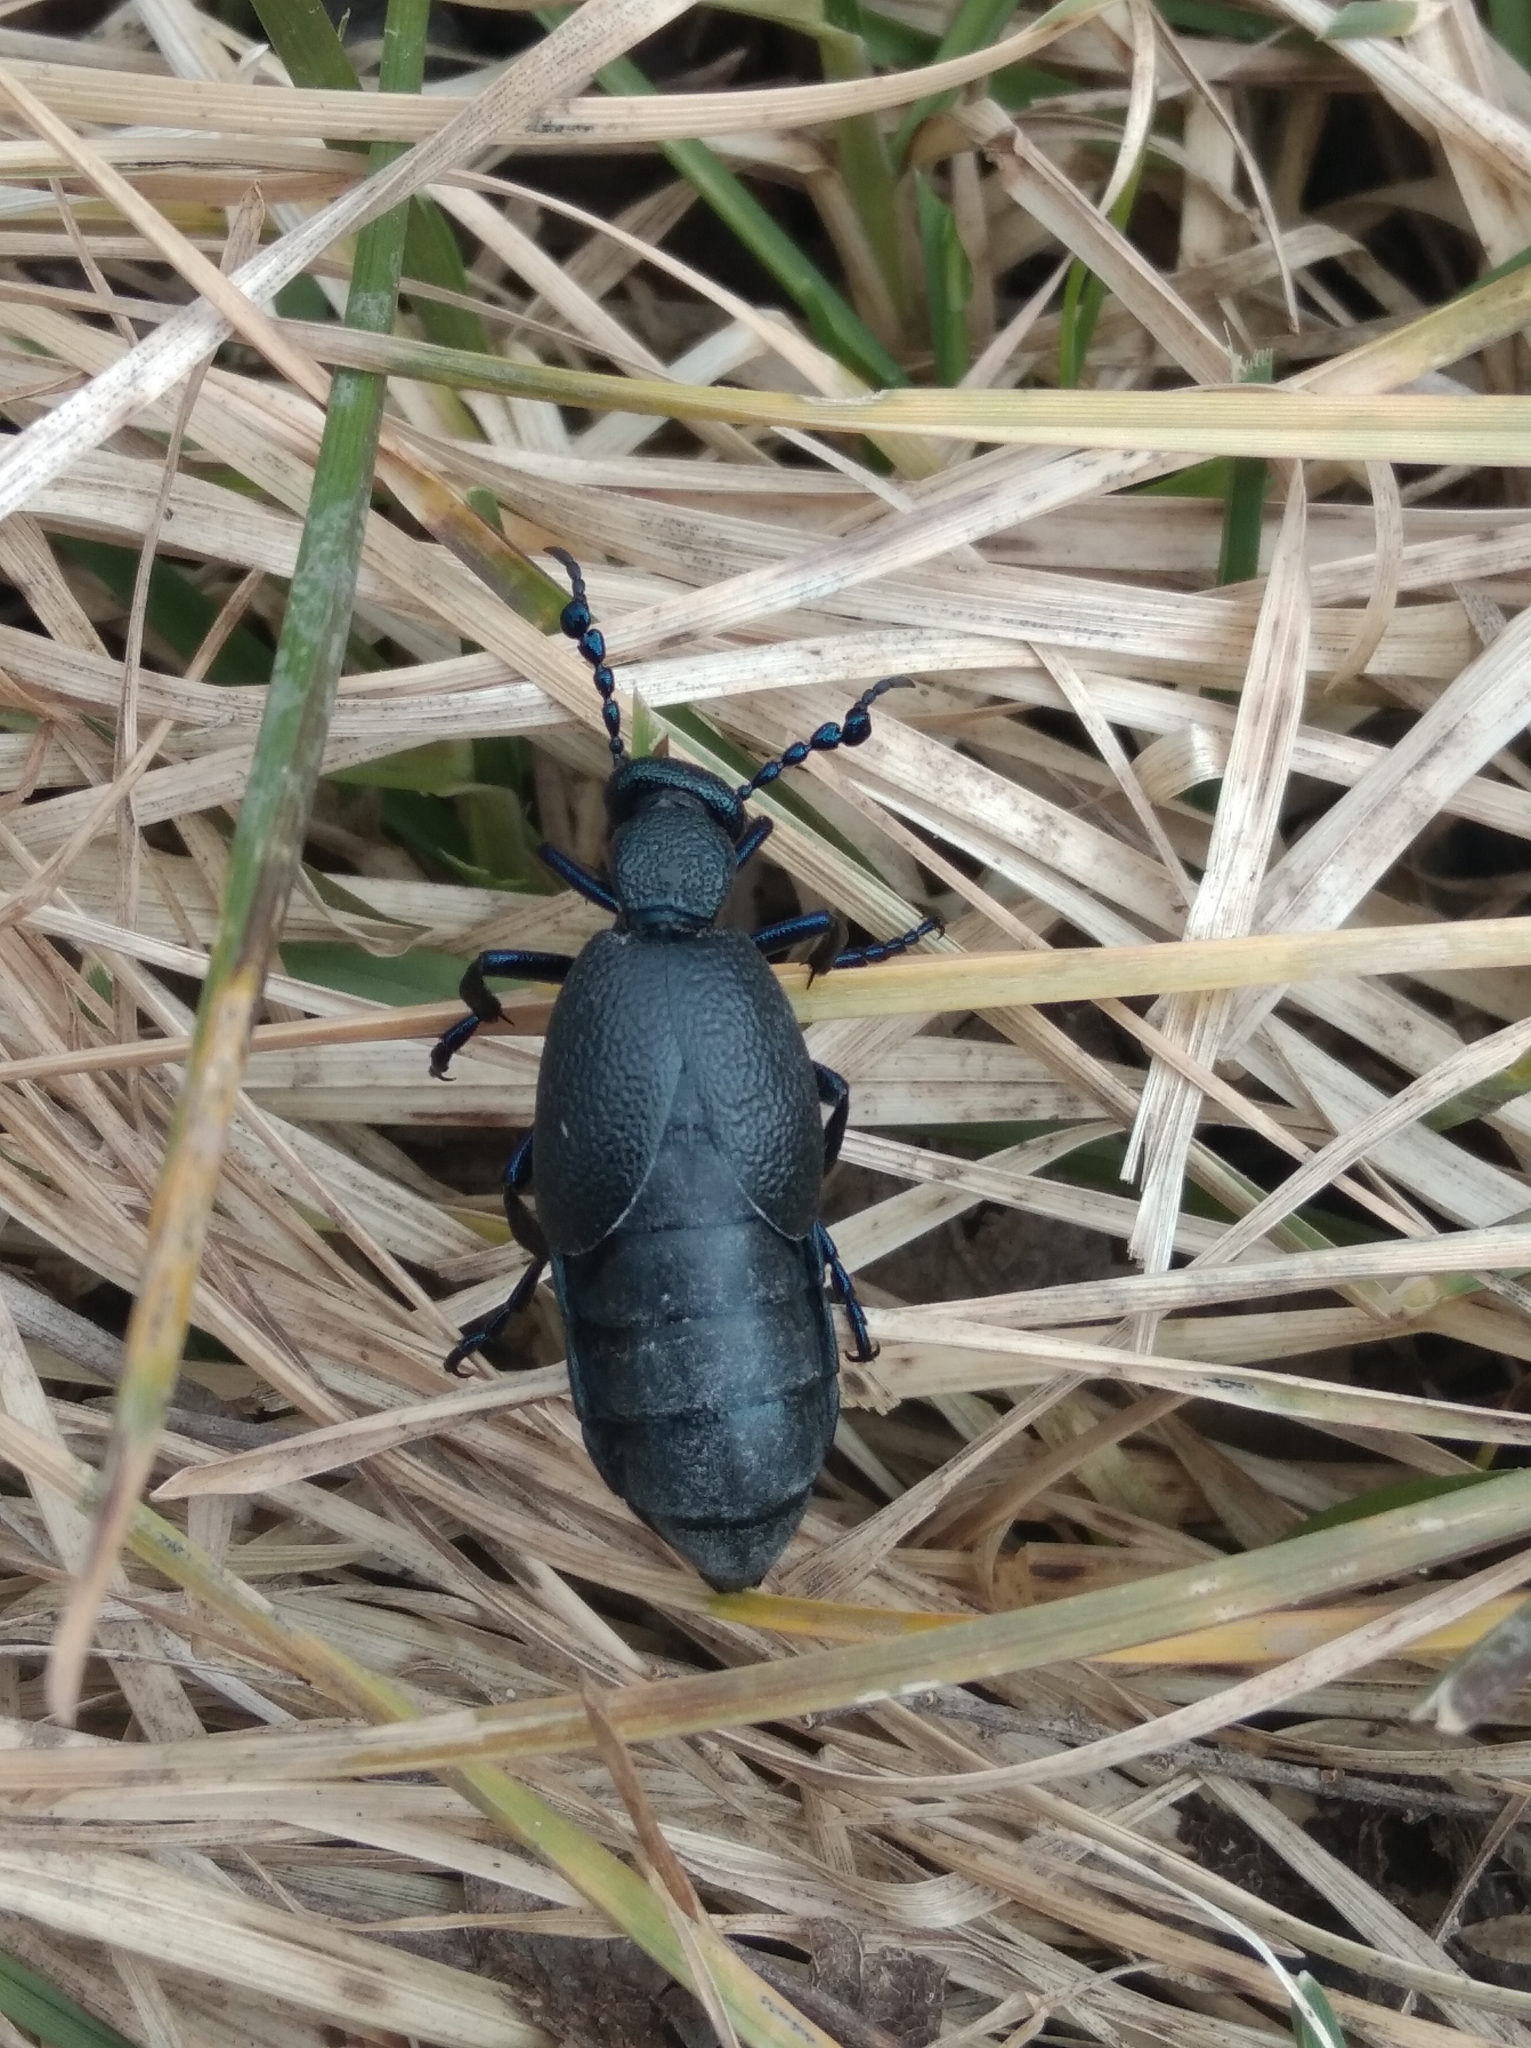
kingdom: Animalia
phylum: Arthropoda
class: Insecta
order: Coleoptera
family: Meloidae
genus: Meloe
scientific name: Meloe proscarabaeus
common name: Black oil-beetle
